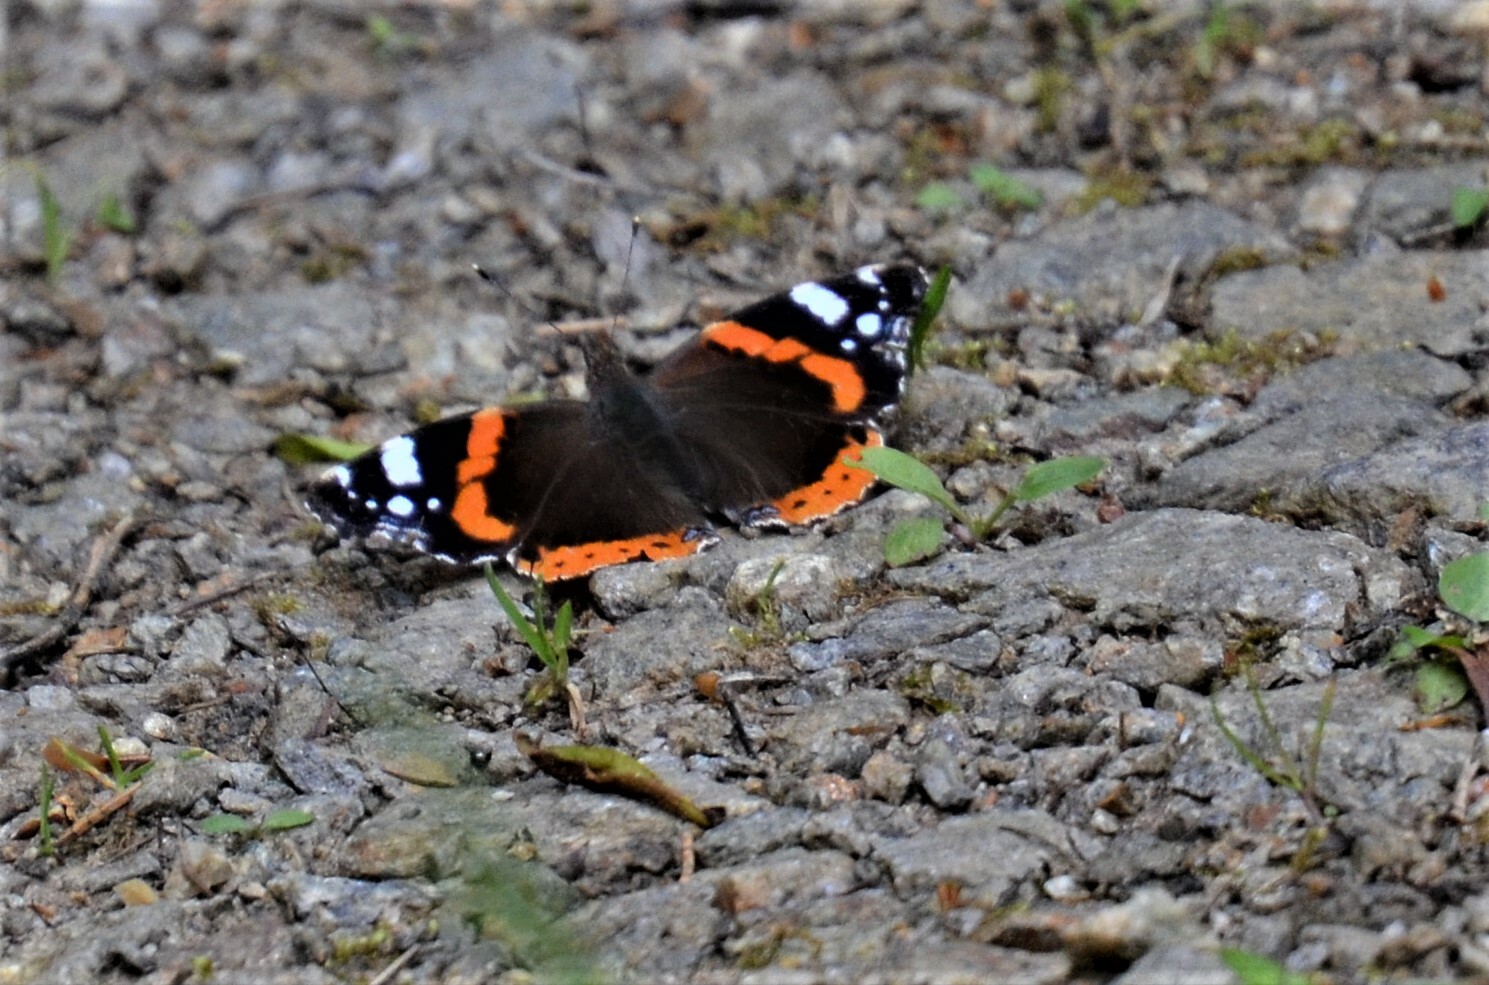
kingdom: Animalia
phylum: Arthropoda
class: Insecta
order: Lepidoptera
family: Nymphalidae
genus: Vanessa
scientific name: Vanessa atalanta
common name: Red admiral
